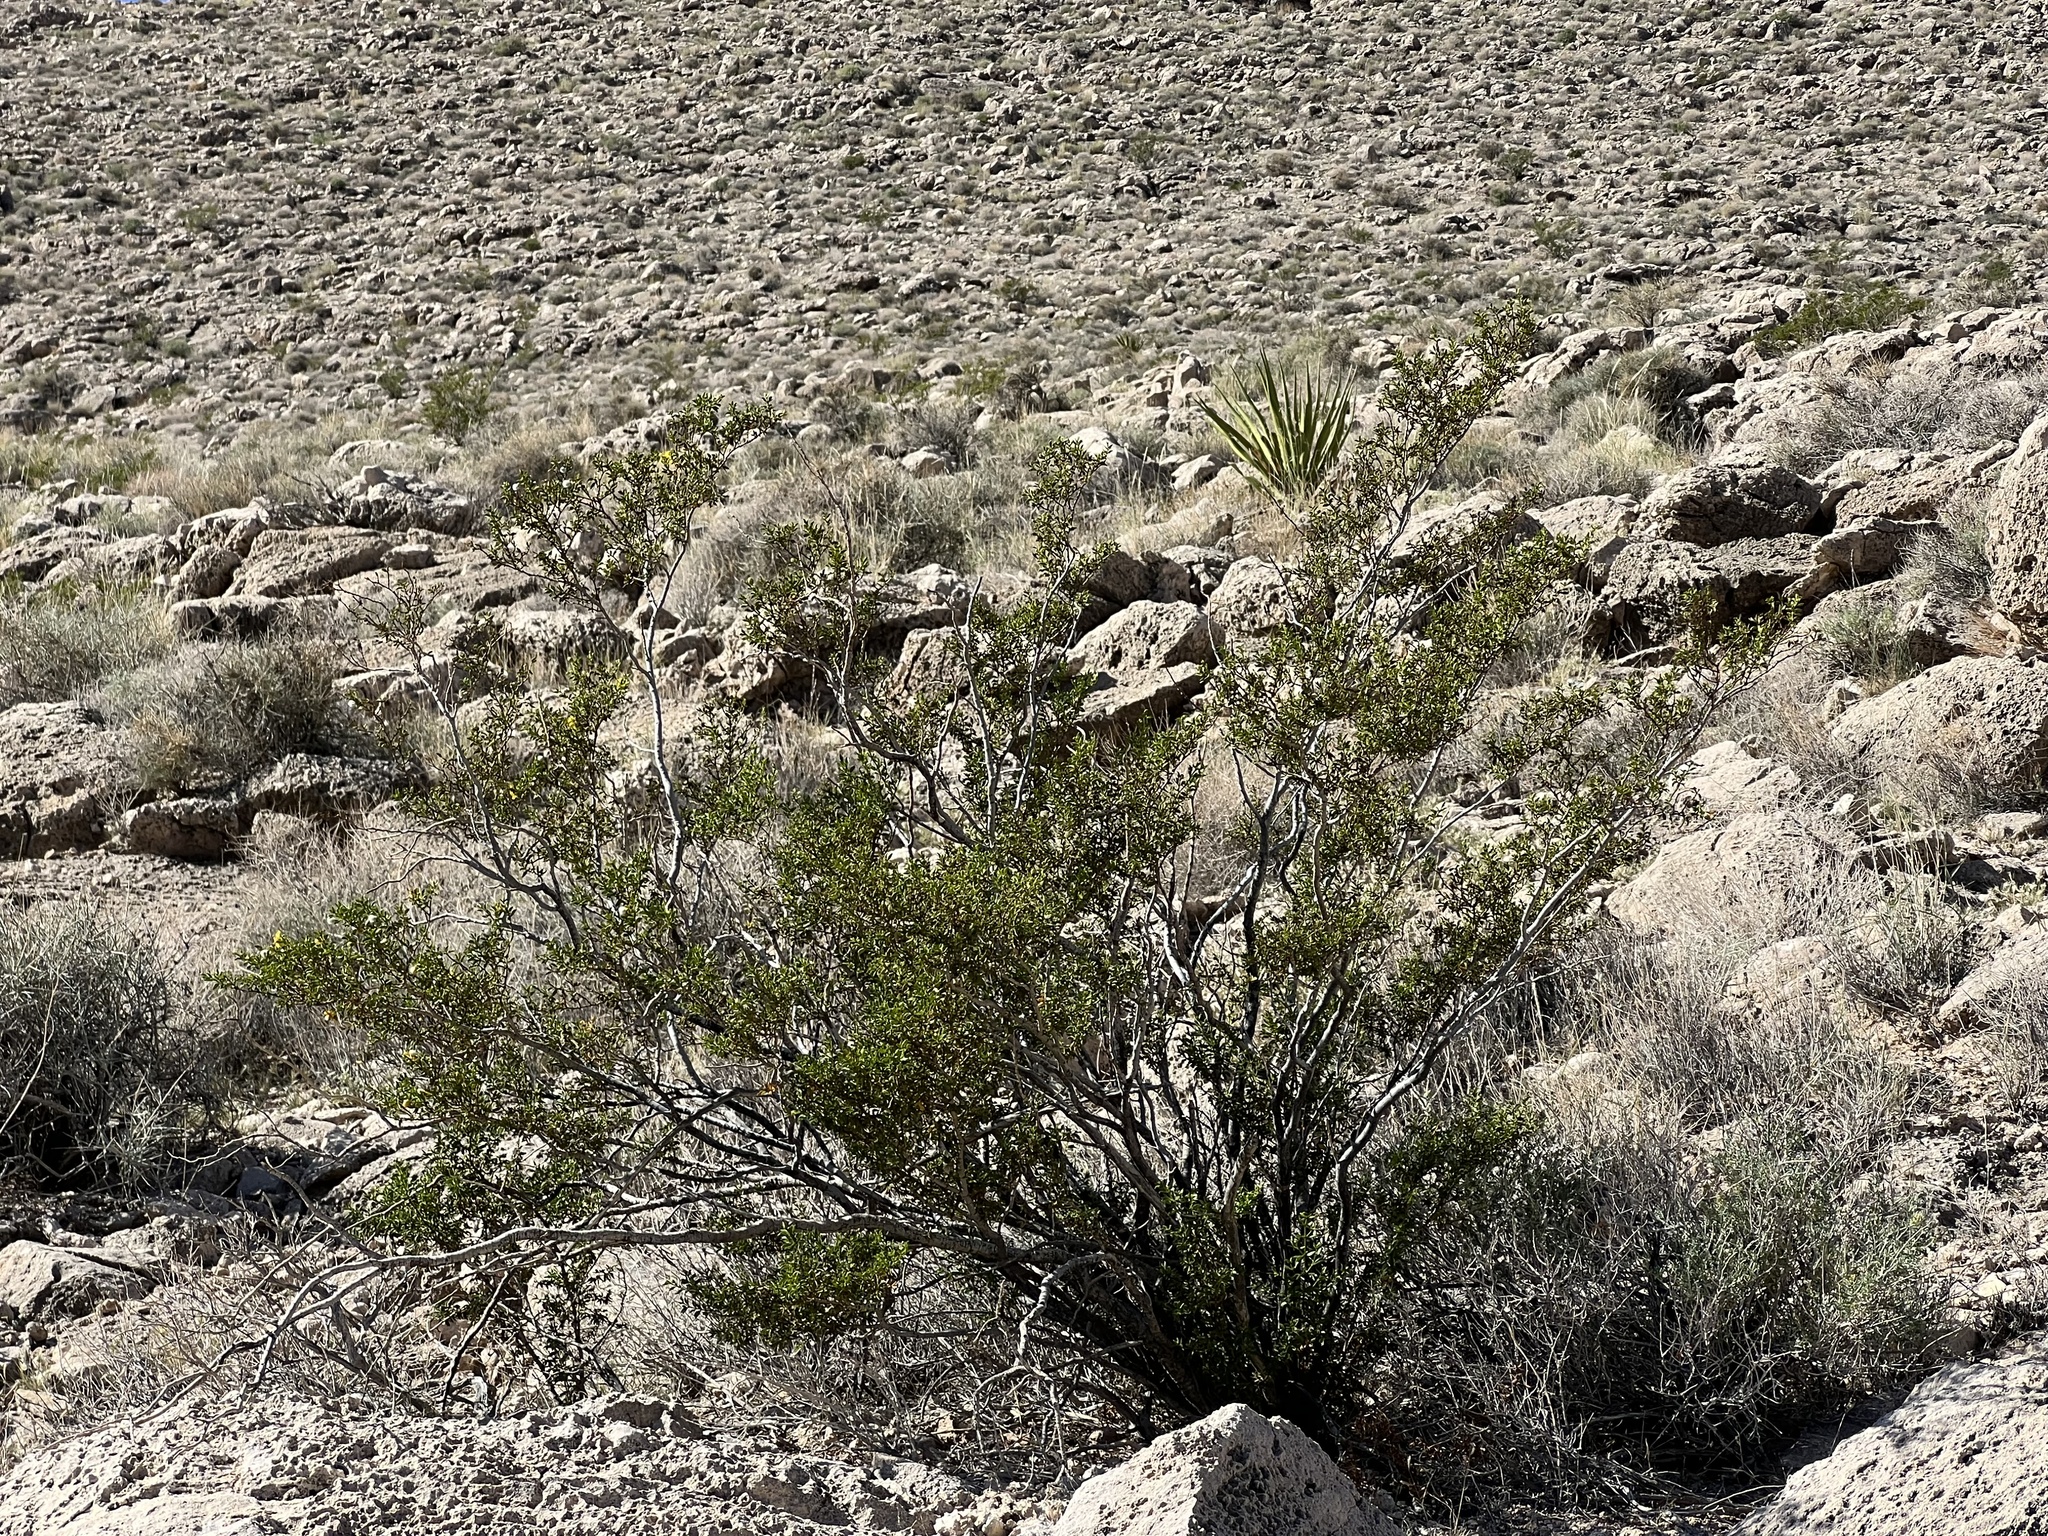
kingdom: Plantae
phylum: Tracheophyta
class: Magnoliopsida
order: Zygophyllales
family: Zygophyllaceae
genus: Larrea
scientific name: Larrea tridentata
